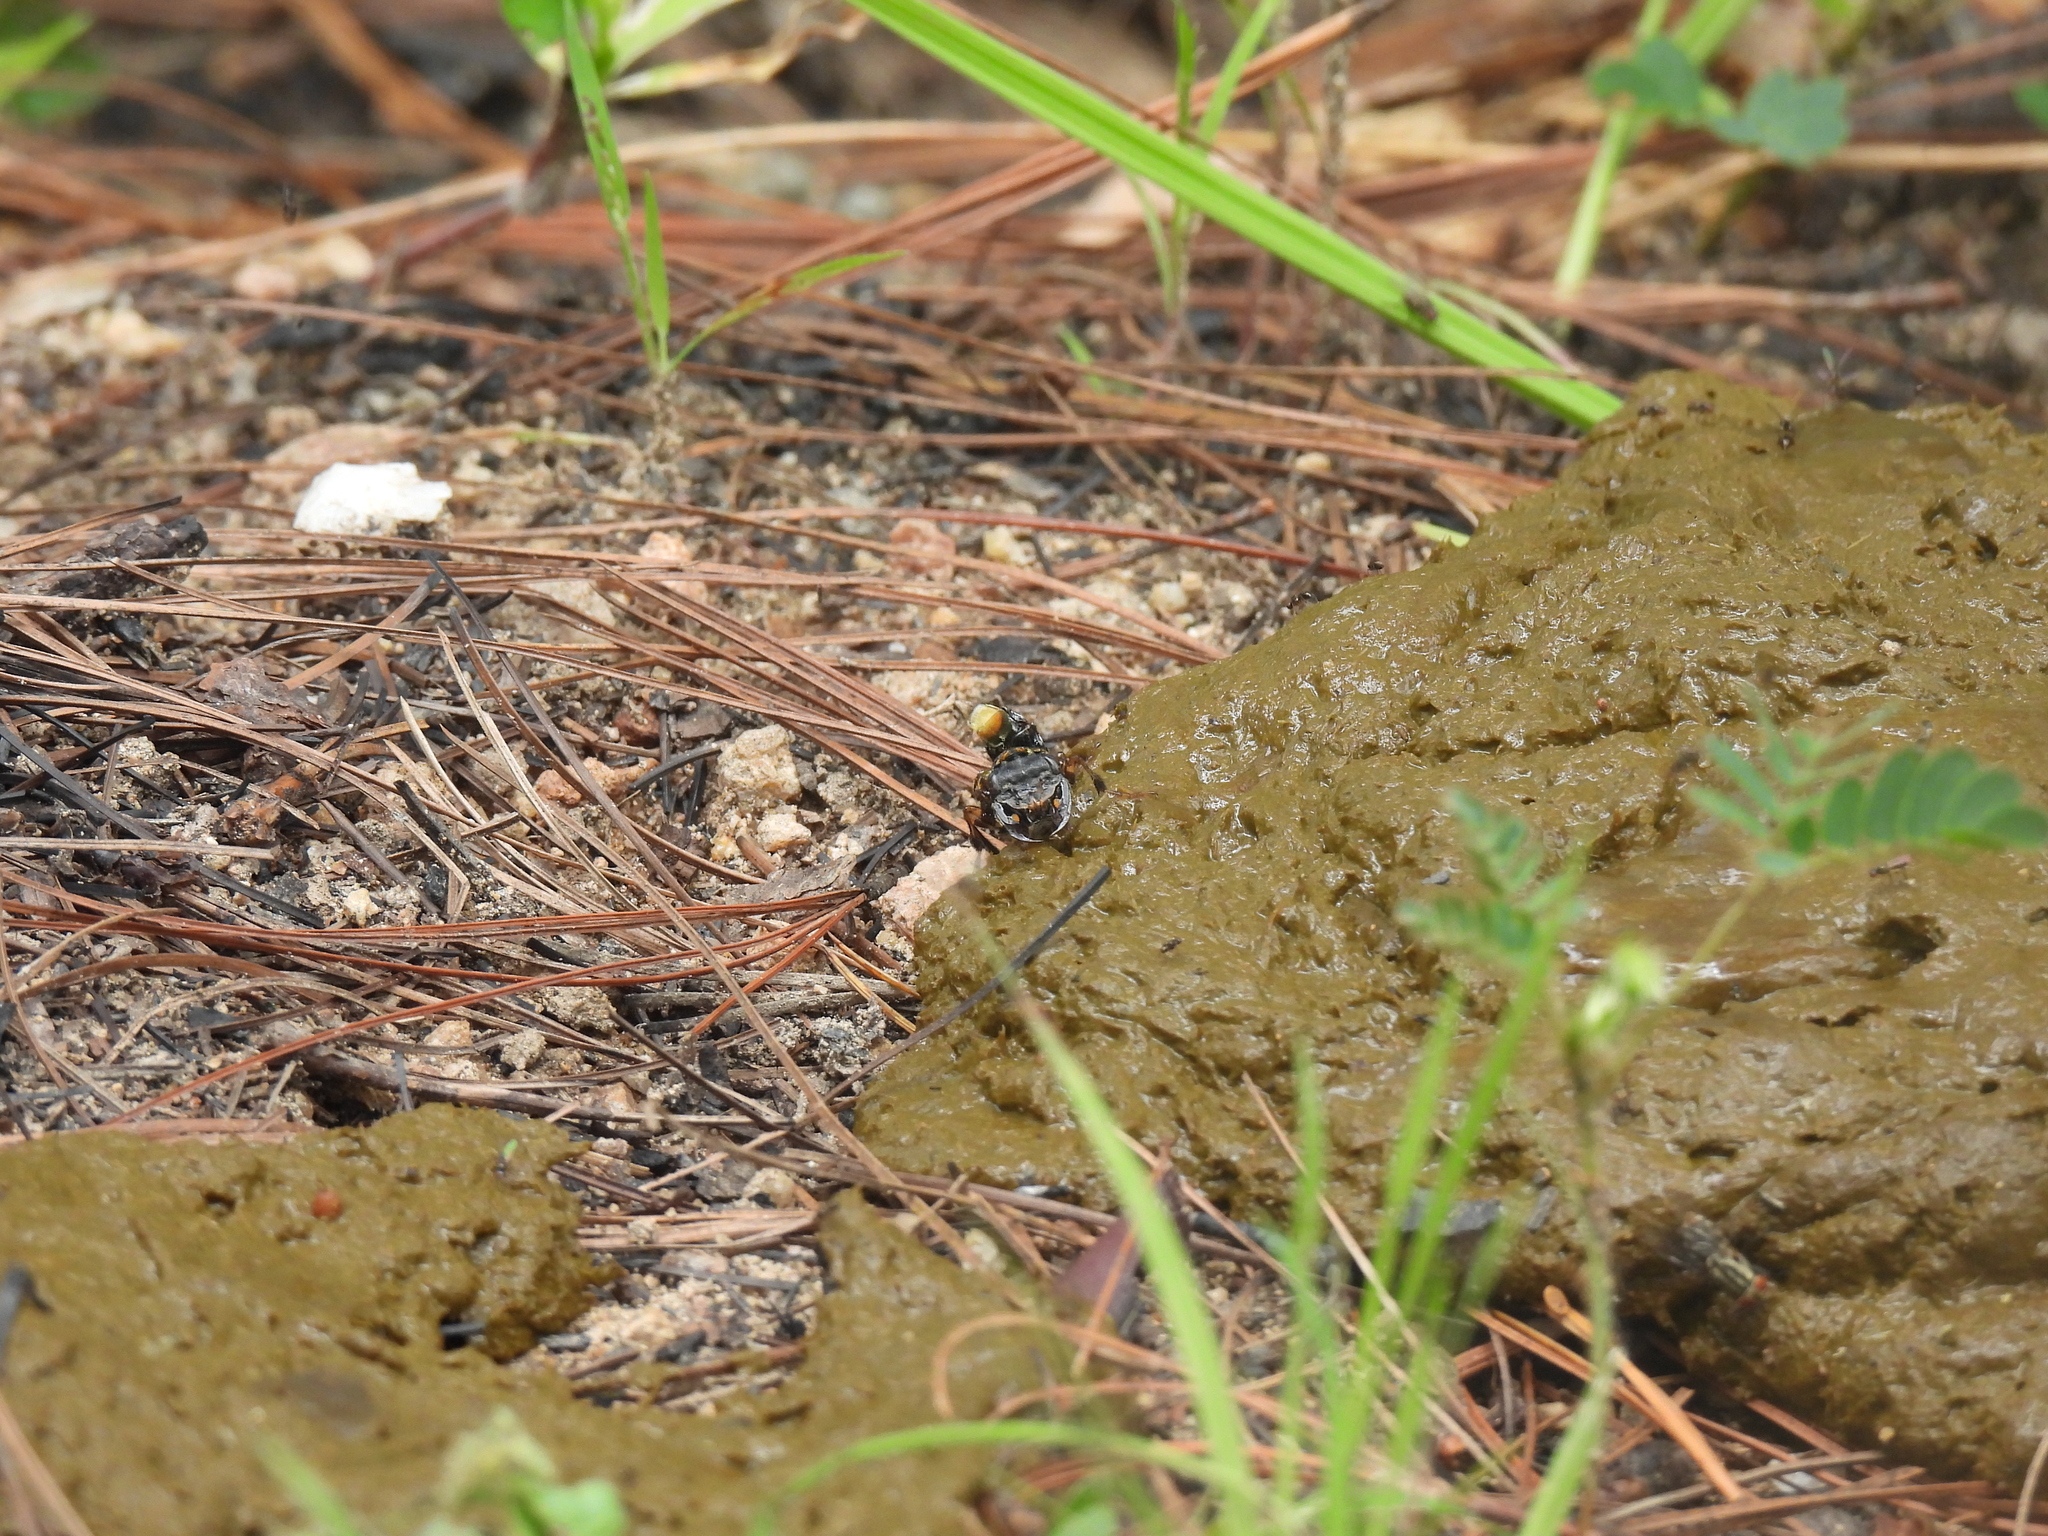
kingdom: Animalia
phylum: Arthropoda
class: Insecta
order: Coleoptera
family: Staphylinidae
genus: Leistotrophus
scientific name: Leistotrophus versicolor
